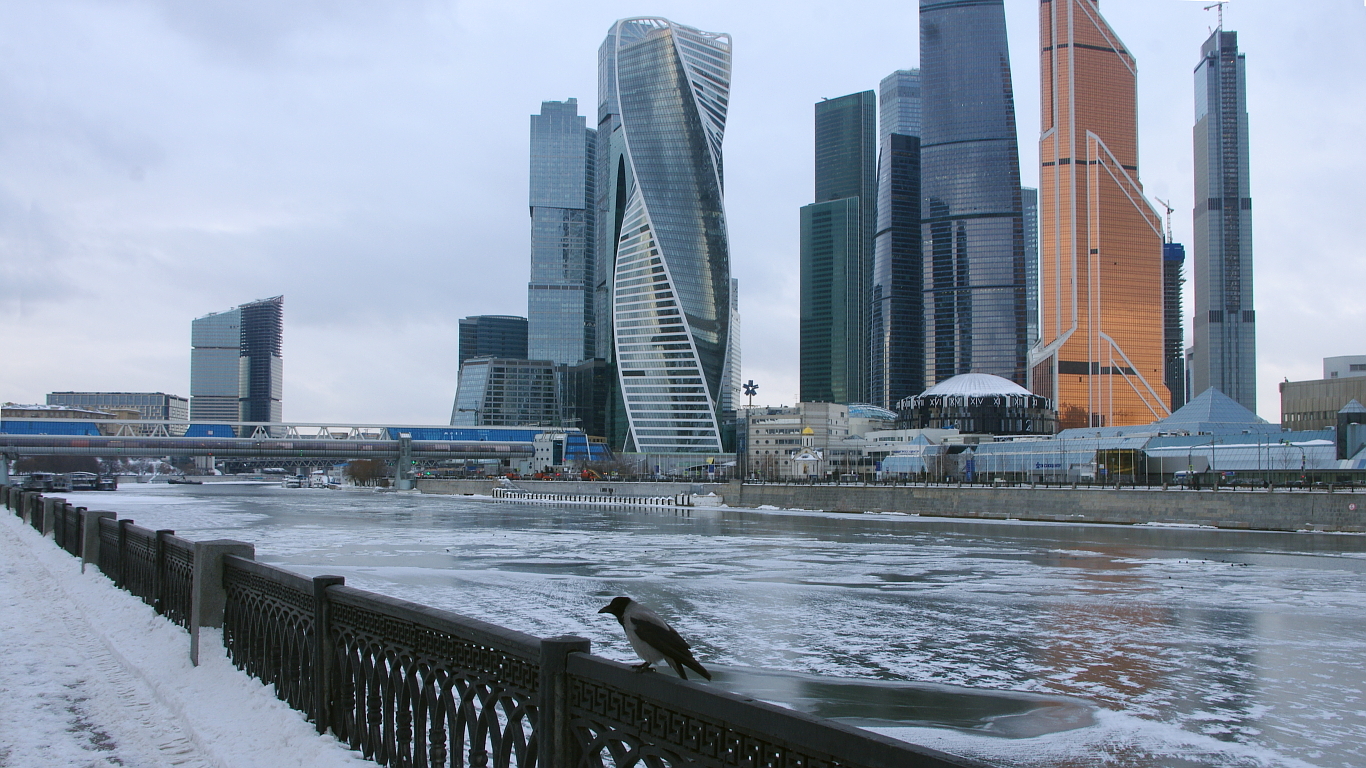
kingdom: Animalia
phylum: Chordata
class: Aves
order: Passeriformes
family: Corvidae
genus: Corvus
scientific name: Corvus cornix
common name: Hooded crow
